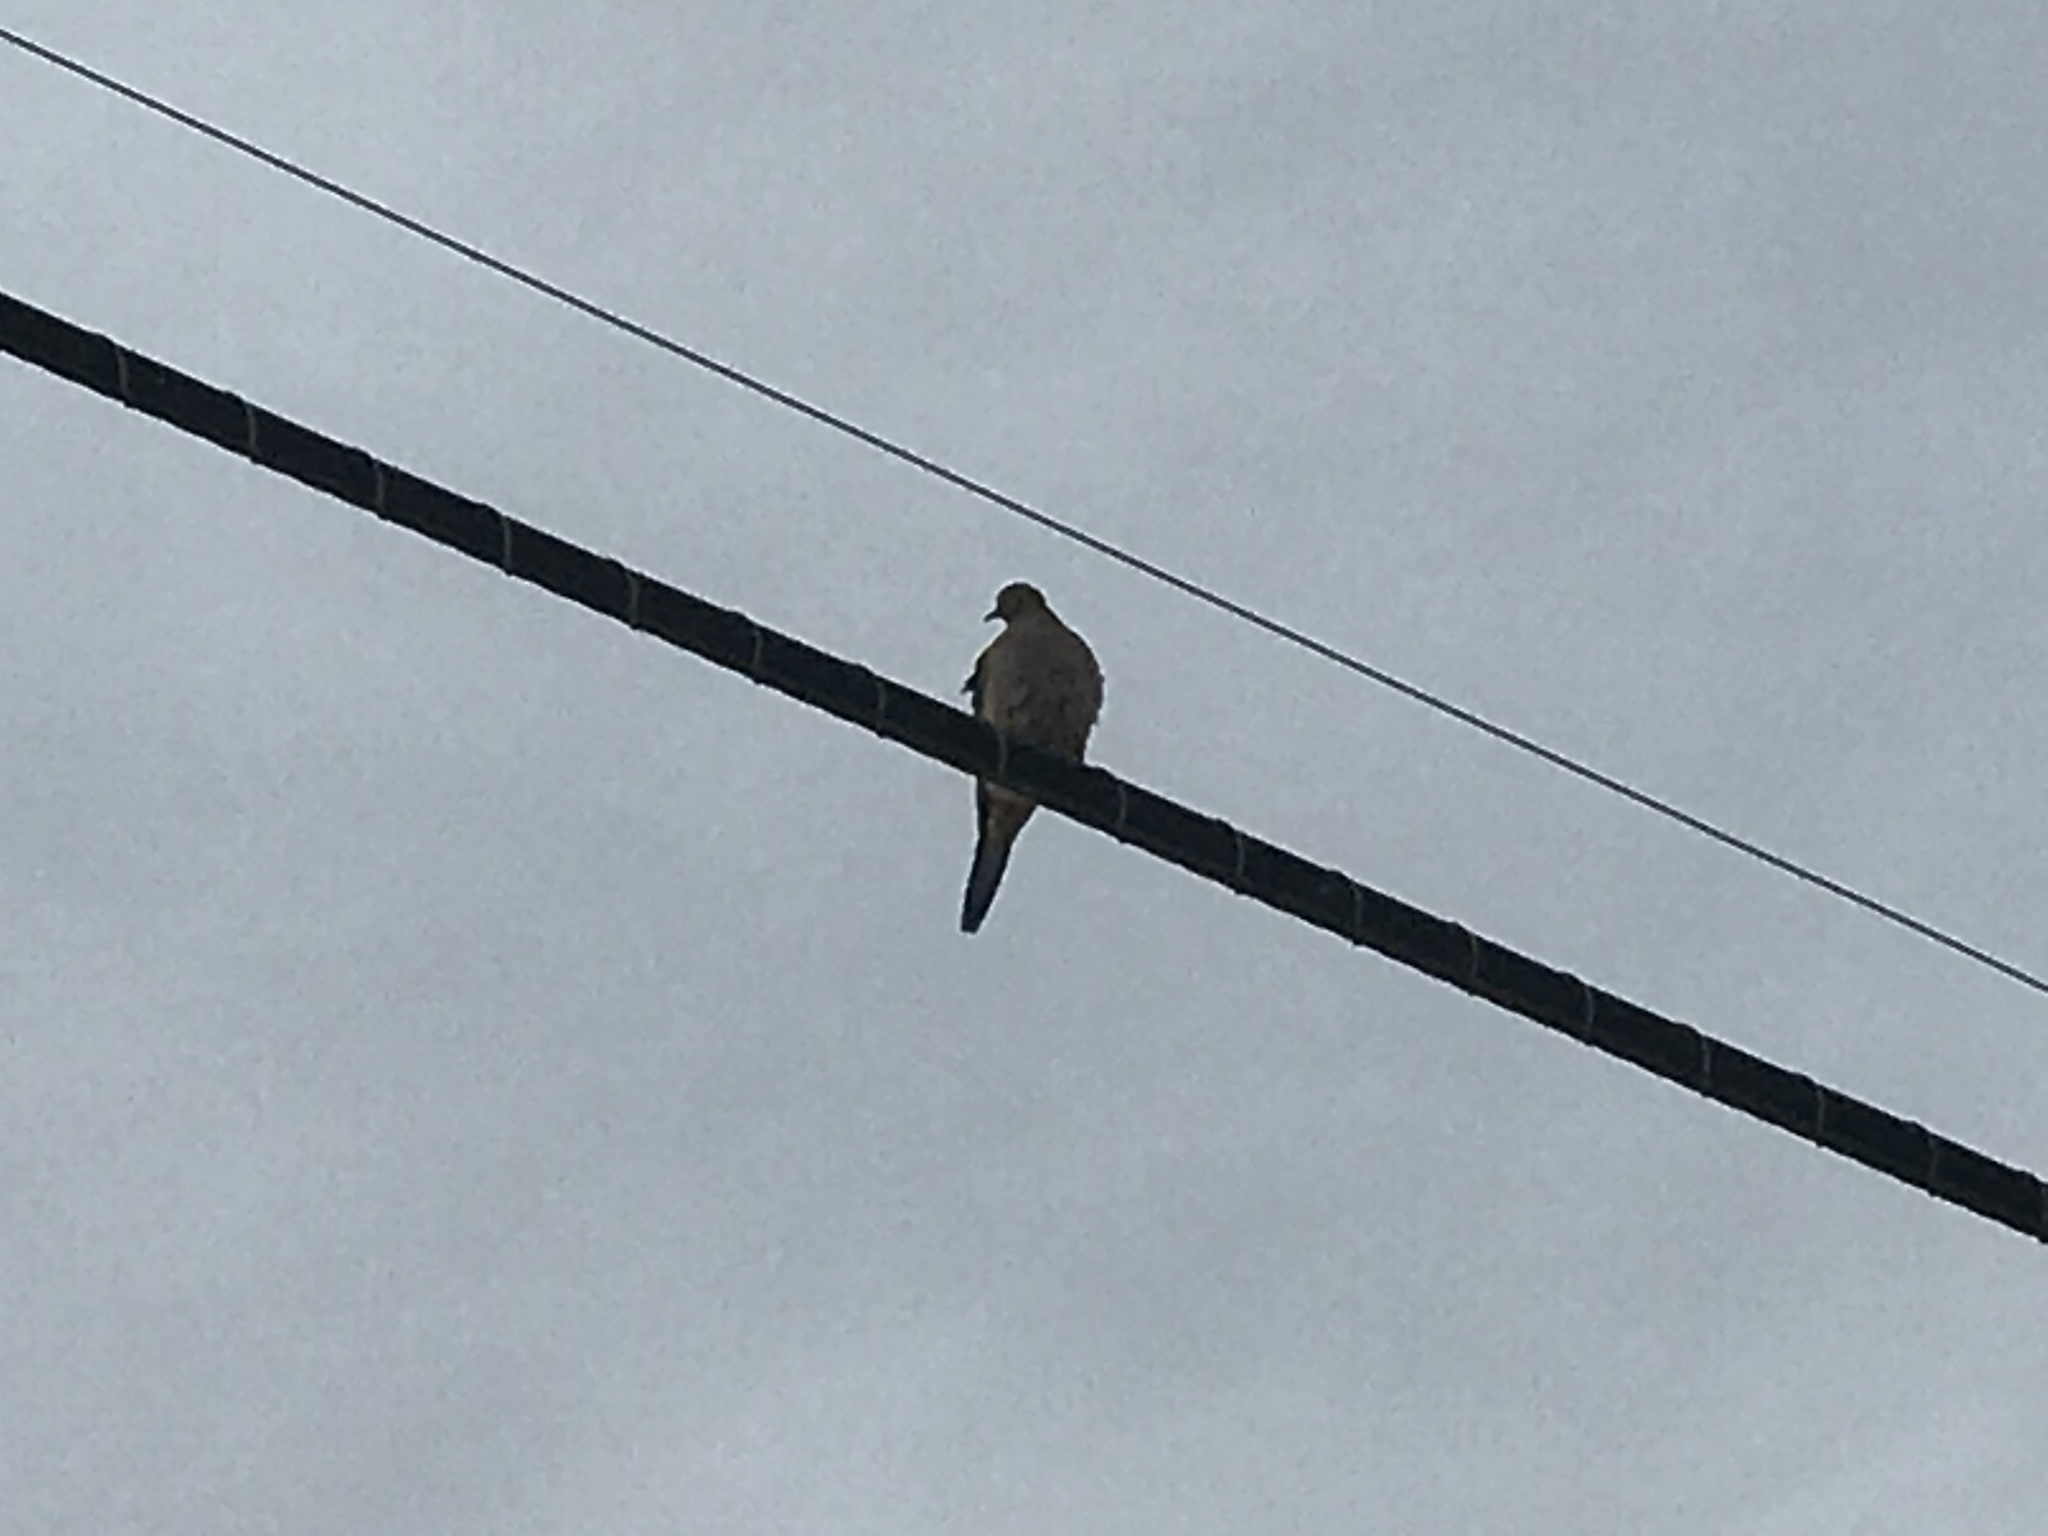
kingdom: Animalia
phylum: Chordata
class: Aves
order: Columbiformes
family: Columbidae
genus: Zenaida
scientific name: Zenaida macroura
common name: Mourning dove
